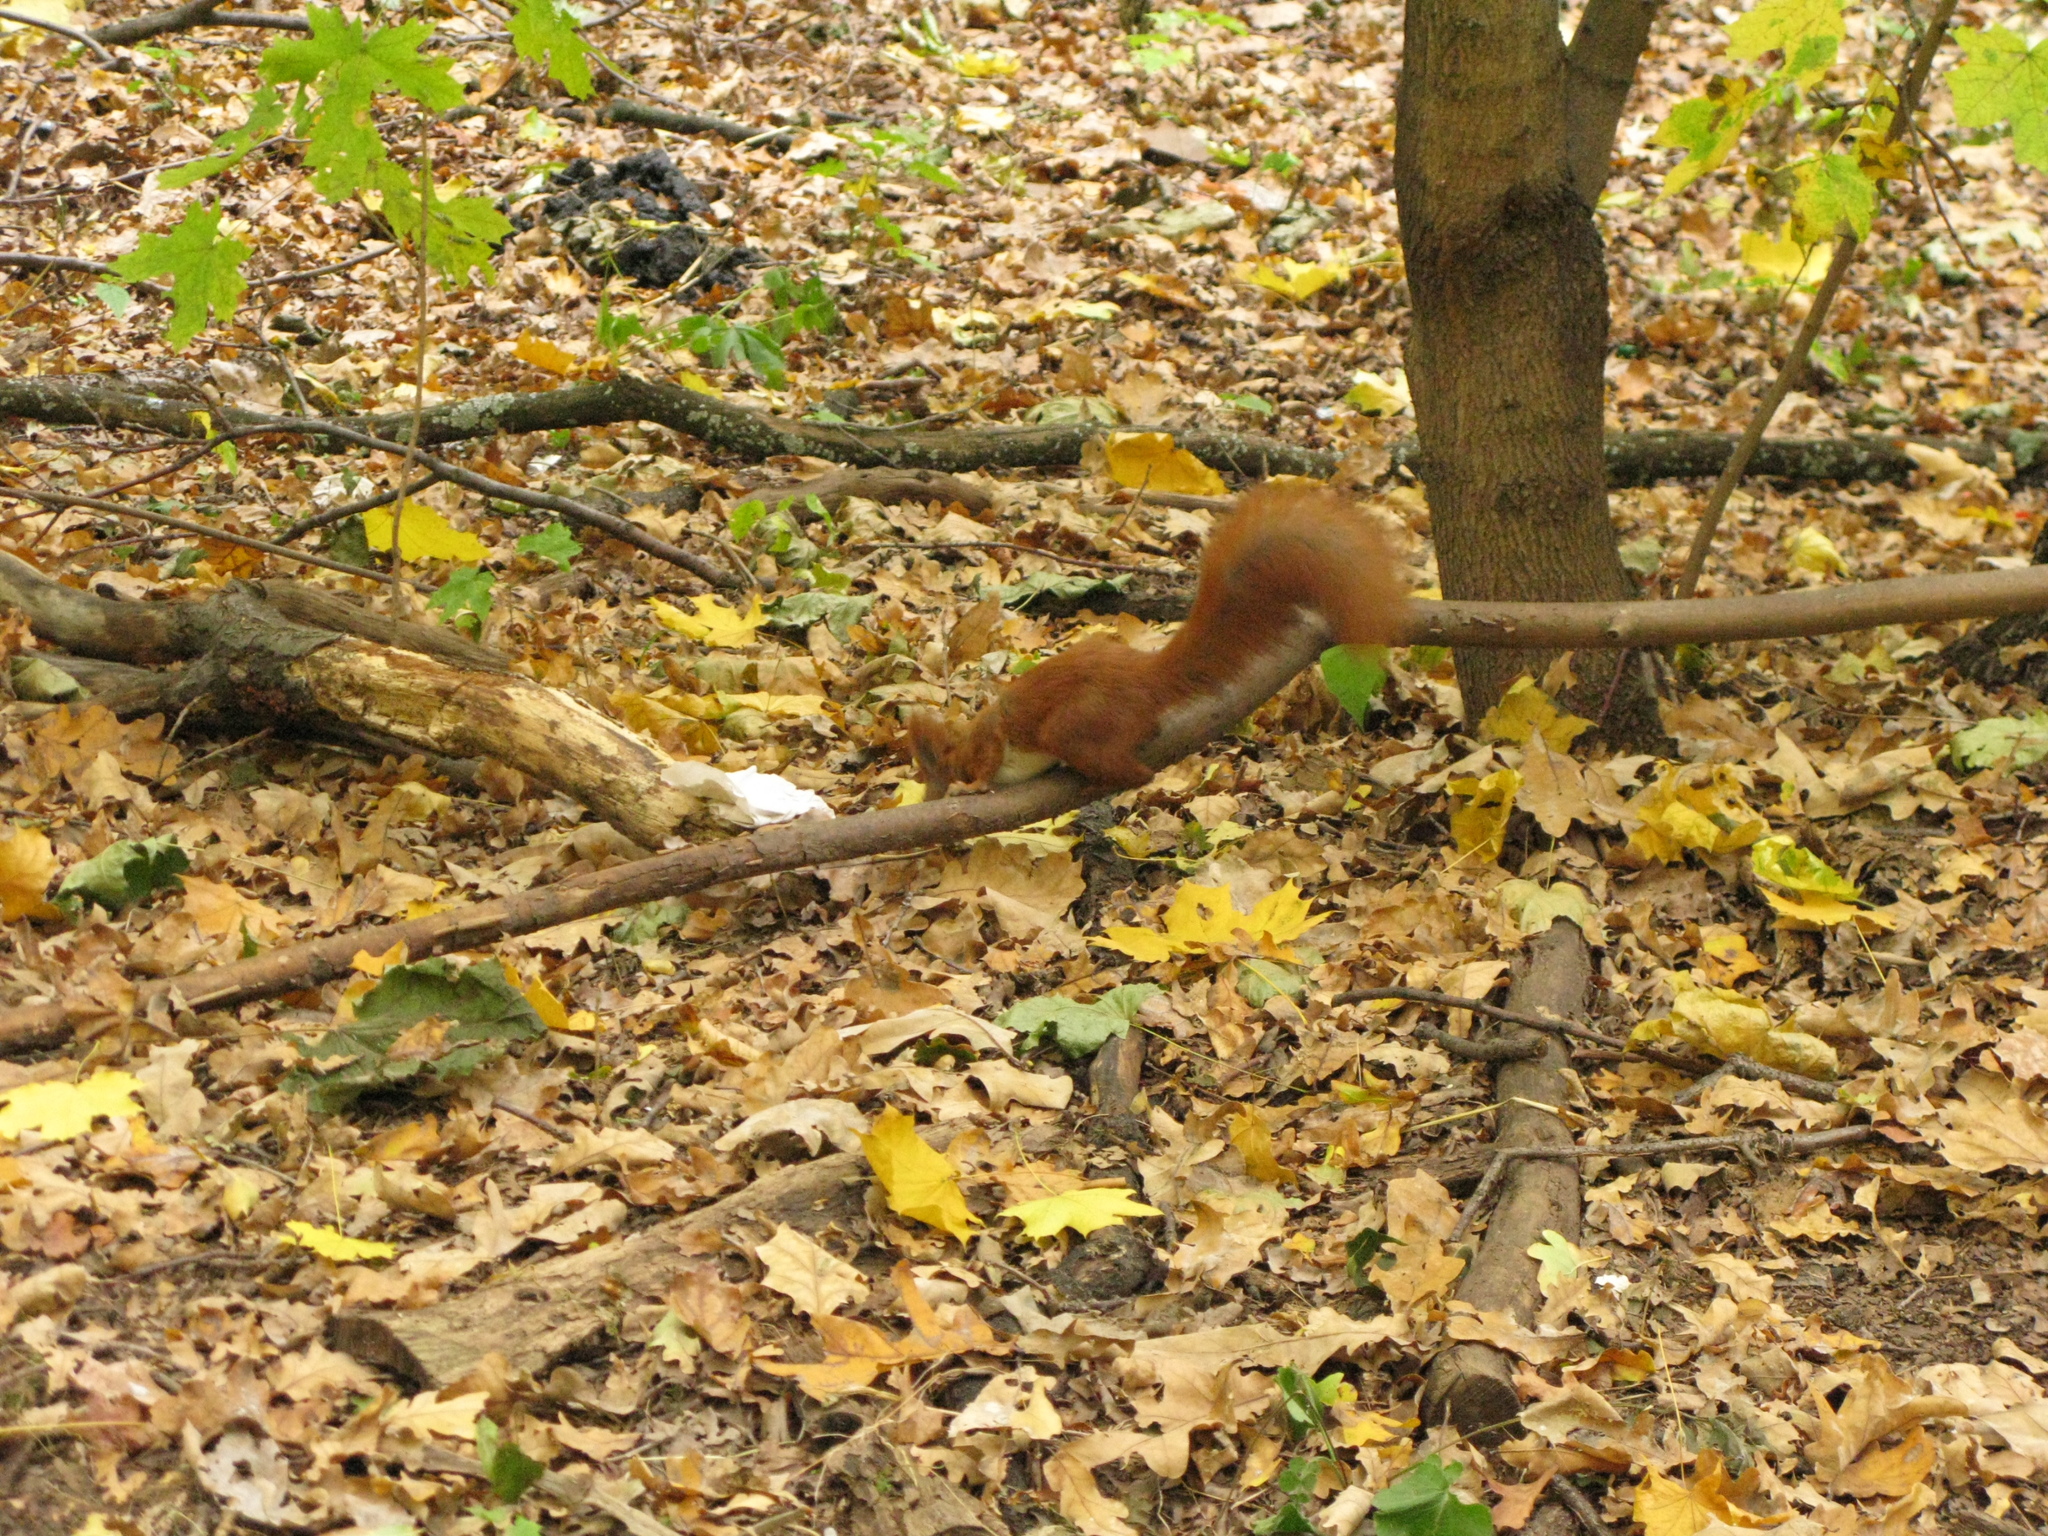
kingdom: Animalia
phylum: Chordata
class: Mammalia
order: Rodentia
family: Sciuridae
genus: Sciurus
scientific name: Sciurus vulgaris
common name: Eurasian red squirrel
